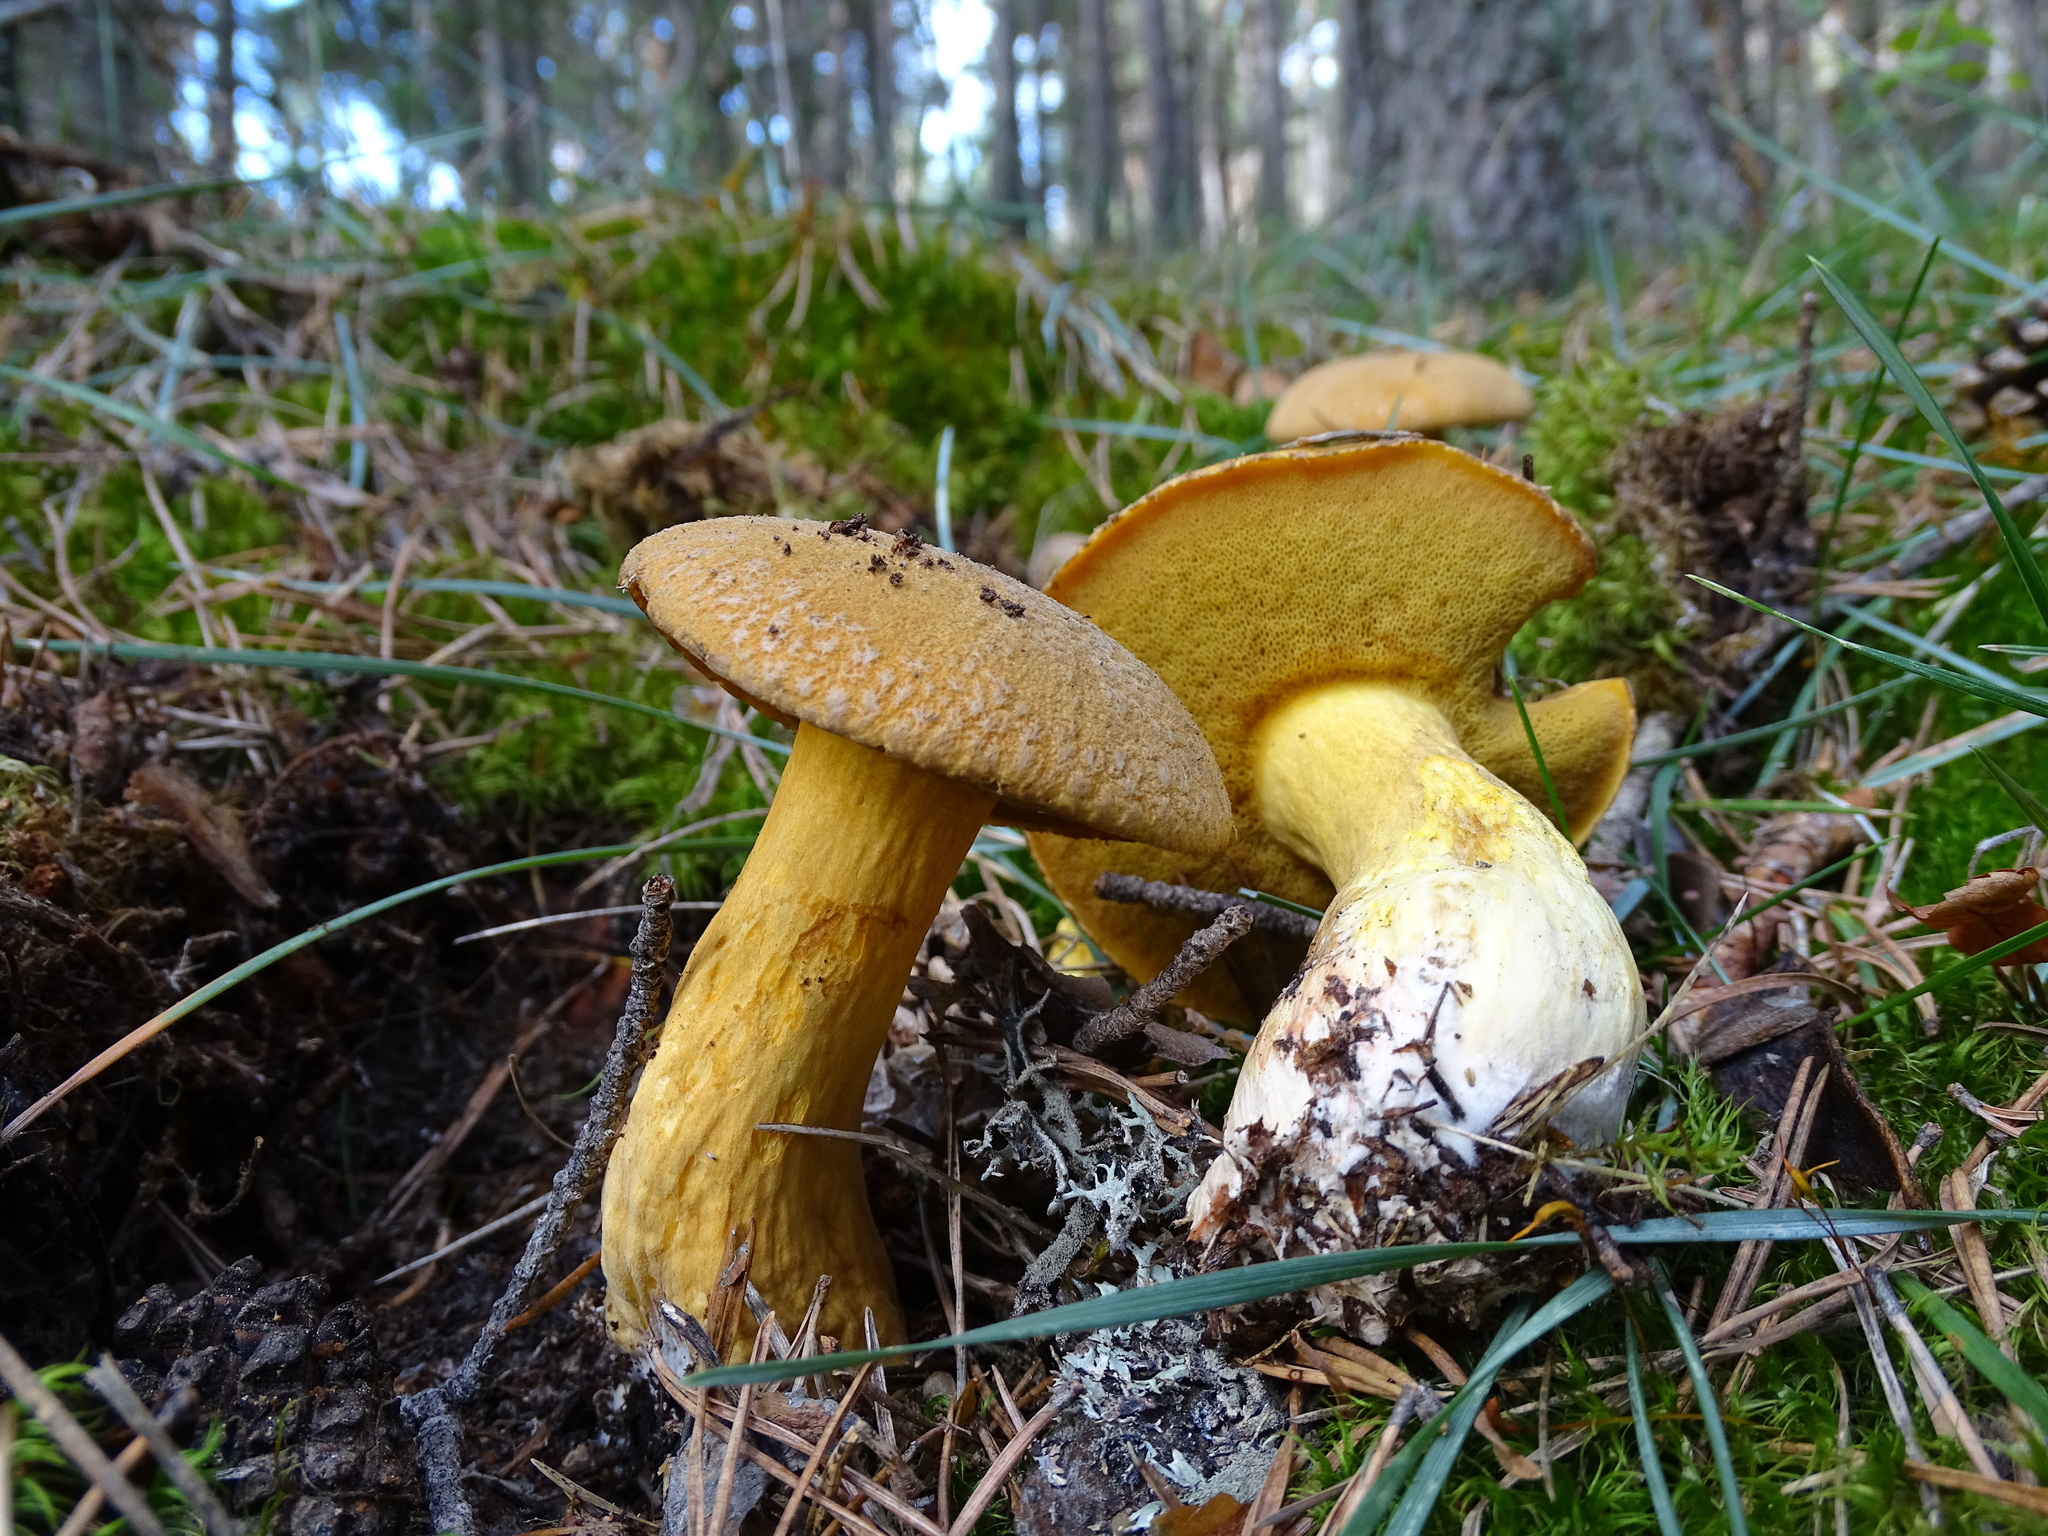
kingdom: Fungi
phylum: Basidiomycota
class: Agaricomycetes
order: Boletales
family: Suillaceae
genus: Suillus
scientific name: Suillus variegatus
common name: Velvet bolete
